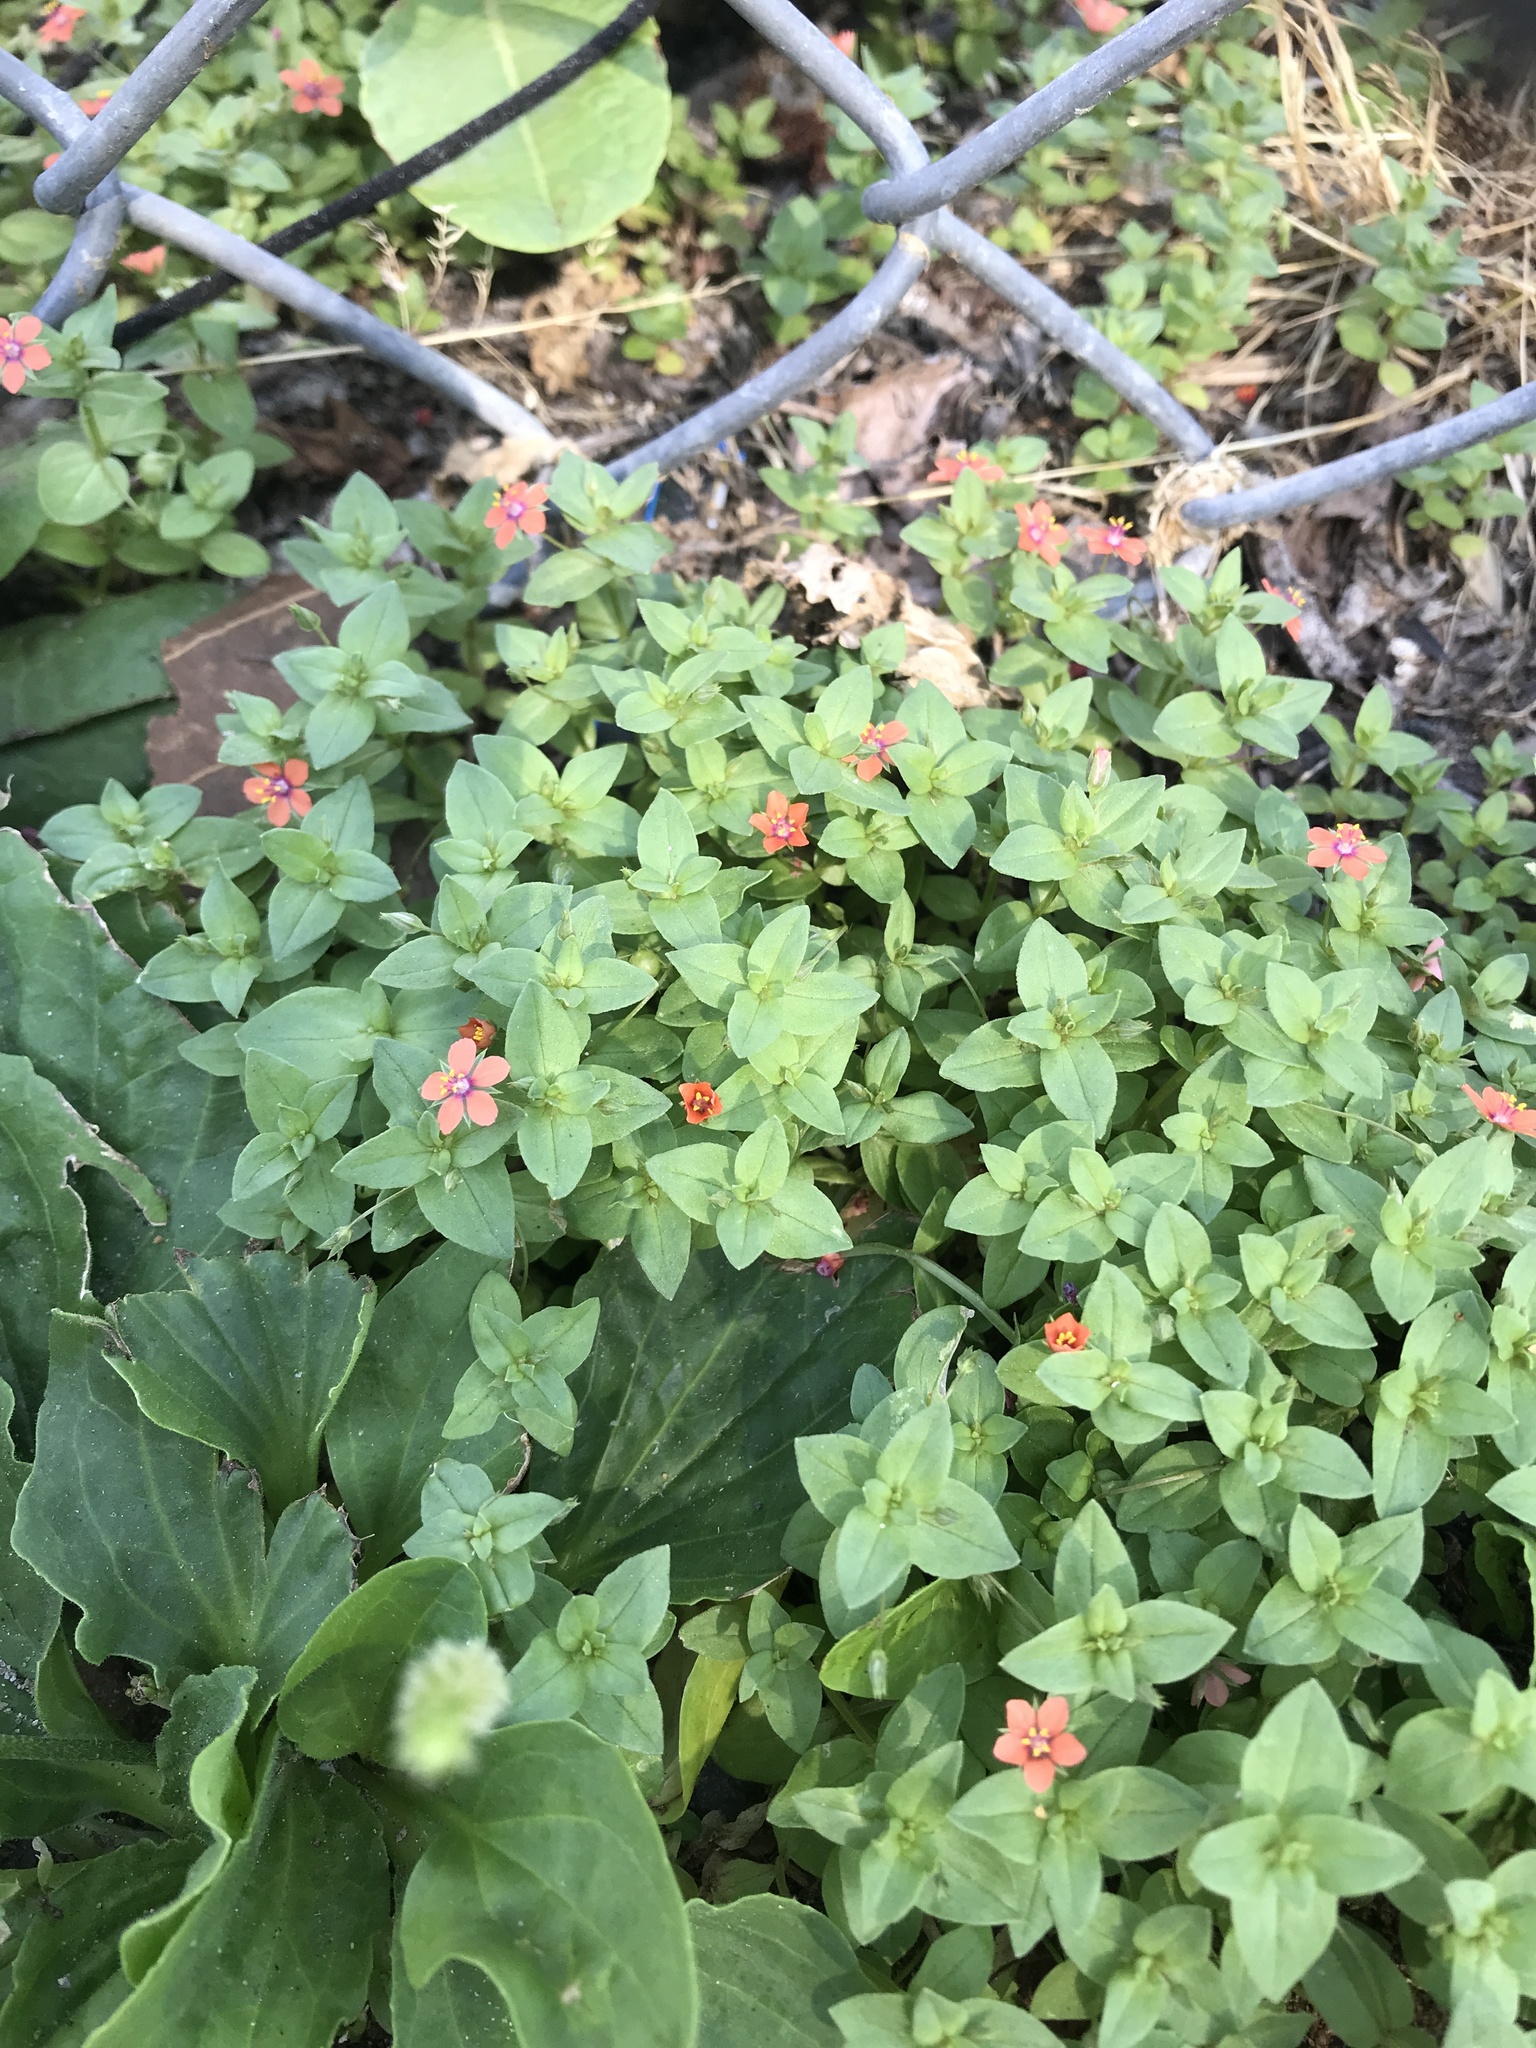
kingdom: Plantae
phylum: Tracheophyta
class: Magnoliopsida
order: Ericales
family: Primulaceae
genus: Lysimachia
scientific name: Lysimachia arvensis
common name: Scarlet pimpernel
